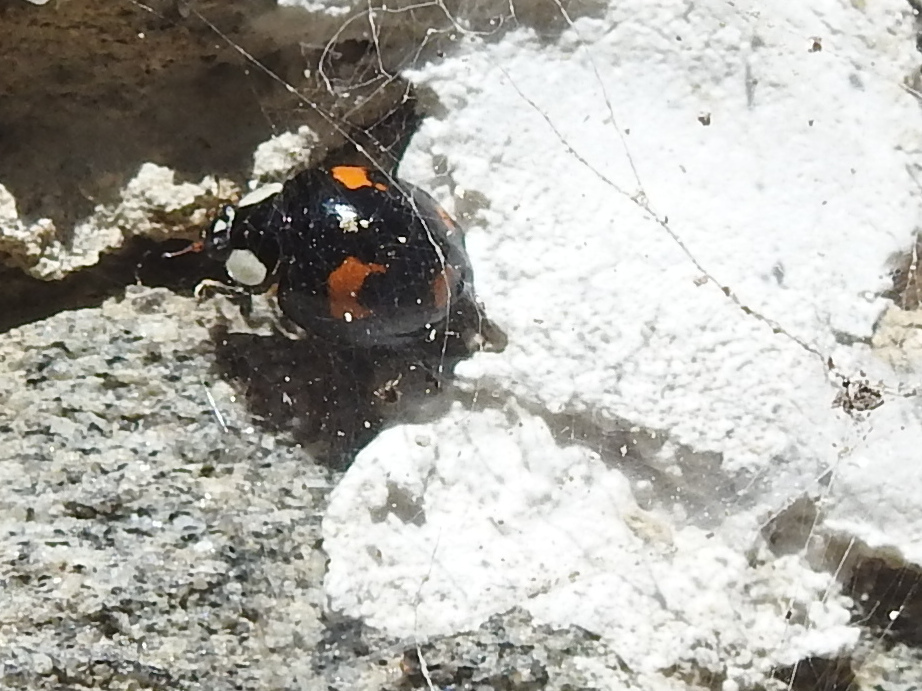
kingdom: Animalia
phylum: Arthropoda
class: Insecta
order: Coleoptera
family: Coccinellidae
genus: Harmonia
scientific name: Harmonia axyridis
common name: Harlequin ladybird
